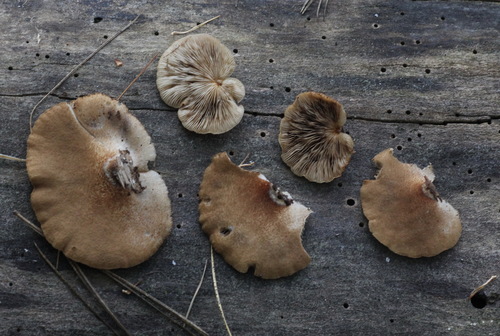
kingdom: Fungi
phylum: Basidiomycota
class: Agaricomycetes
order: Agaricales
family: Crepidotaceae
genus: Crepidotus
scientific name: Crepidotus applanatus
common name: Flat crep
